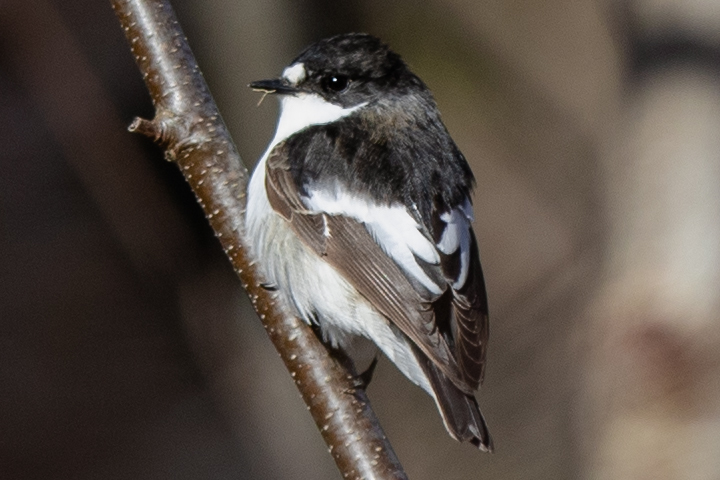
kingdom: Animalia
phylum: Chordata
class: Aves
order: Passeriformes
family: Muscicapidae
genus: Ficedula
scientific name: Ficedula hypoleuca
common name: European pied flycatcher
